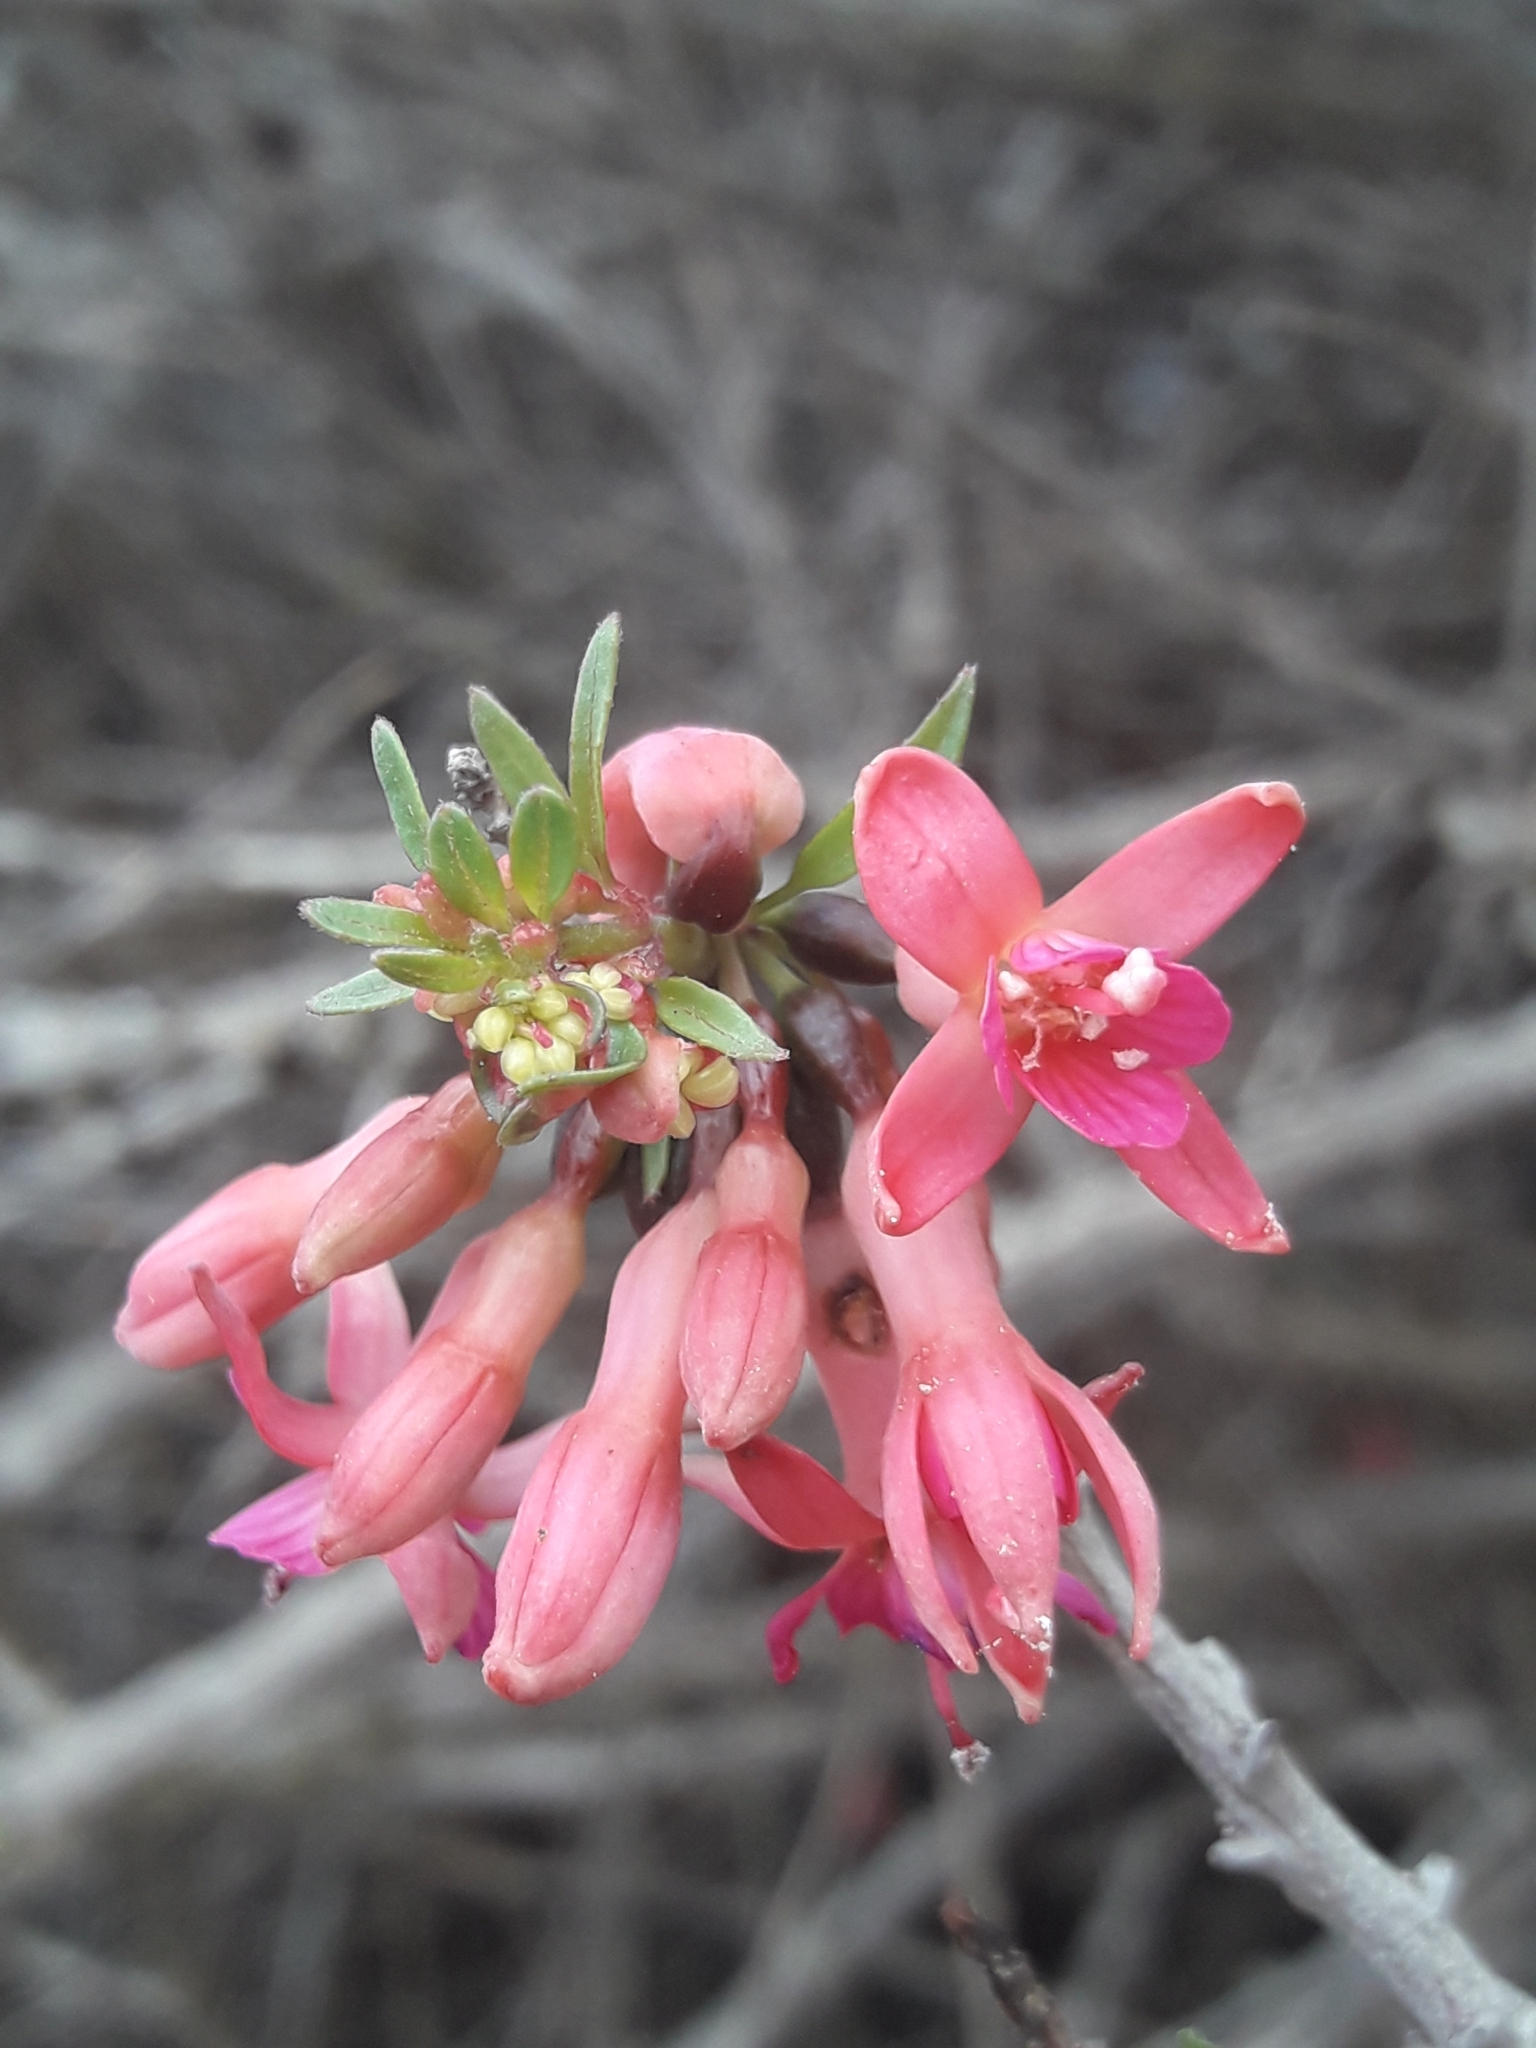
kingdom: Plantae
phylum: Tracheophyta
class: Magnoliopsida
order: Myrtales
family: Onagraceae
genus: Fuchsia
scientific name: Fuchsia lycioides
